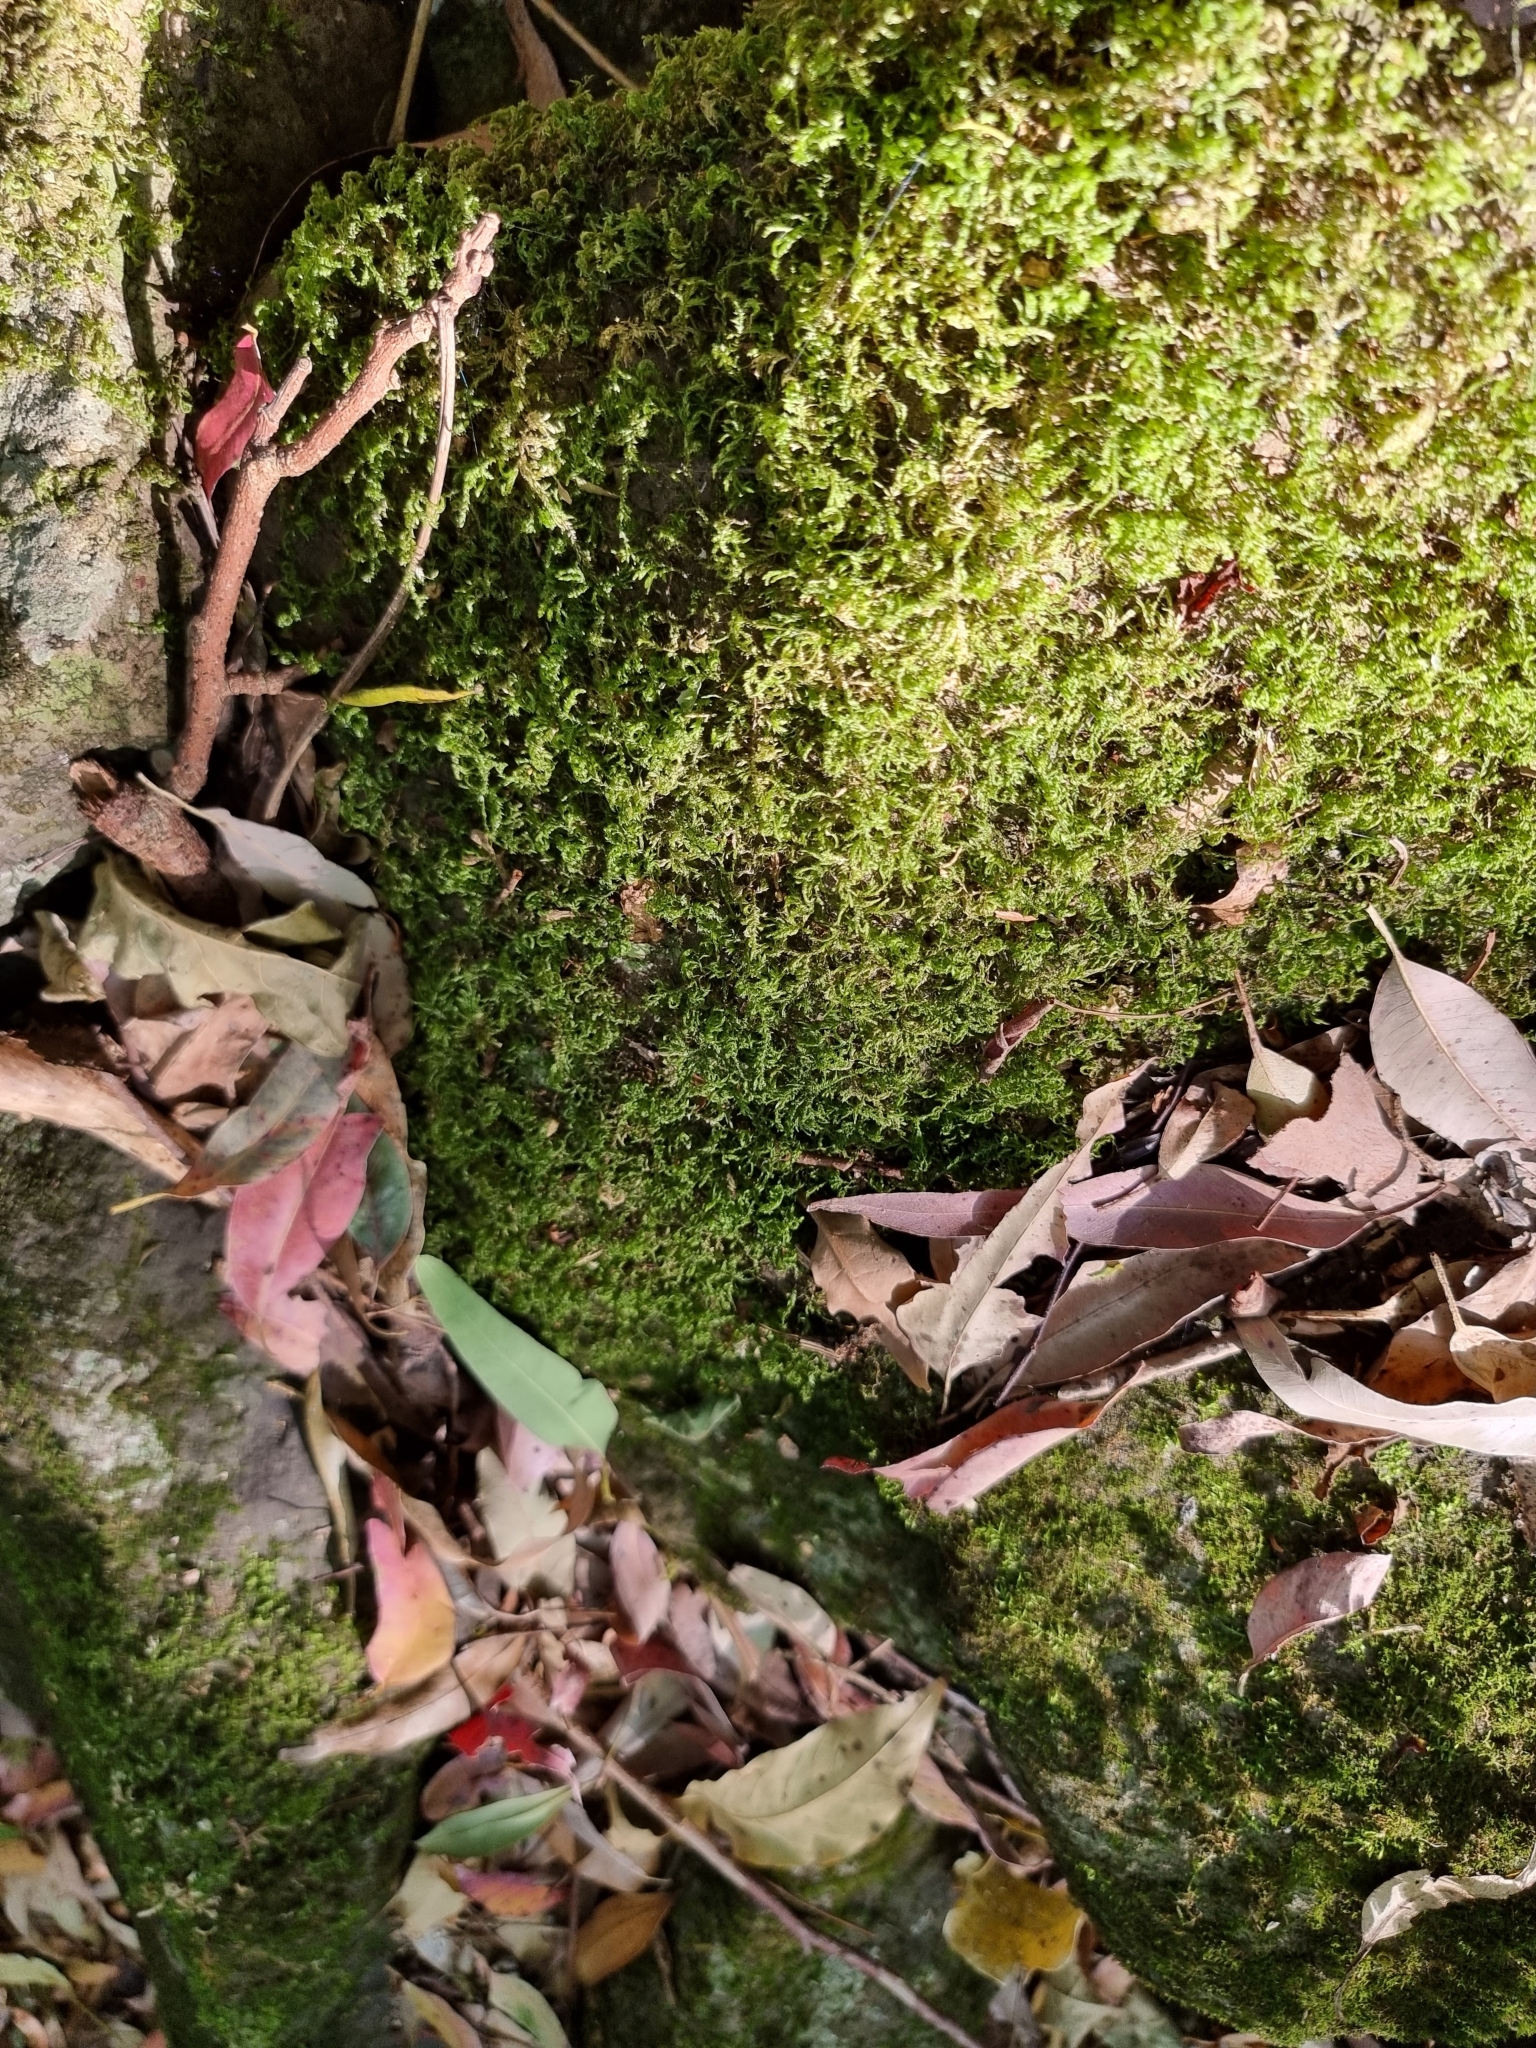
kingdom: Plantae
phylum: Bryophyta
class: Bryopsida
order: Hypnodendrales
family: Racopilaceae
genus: Racopilum
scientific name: Racopilum cuspidigerum
